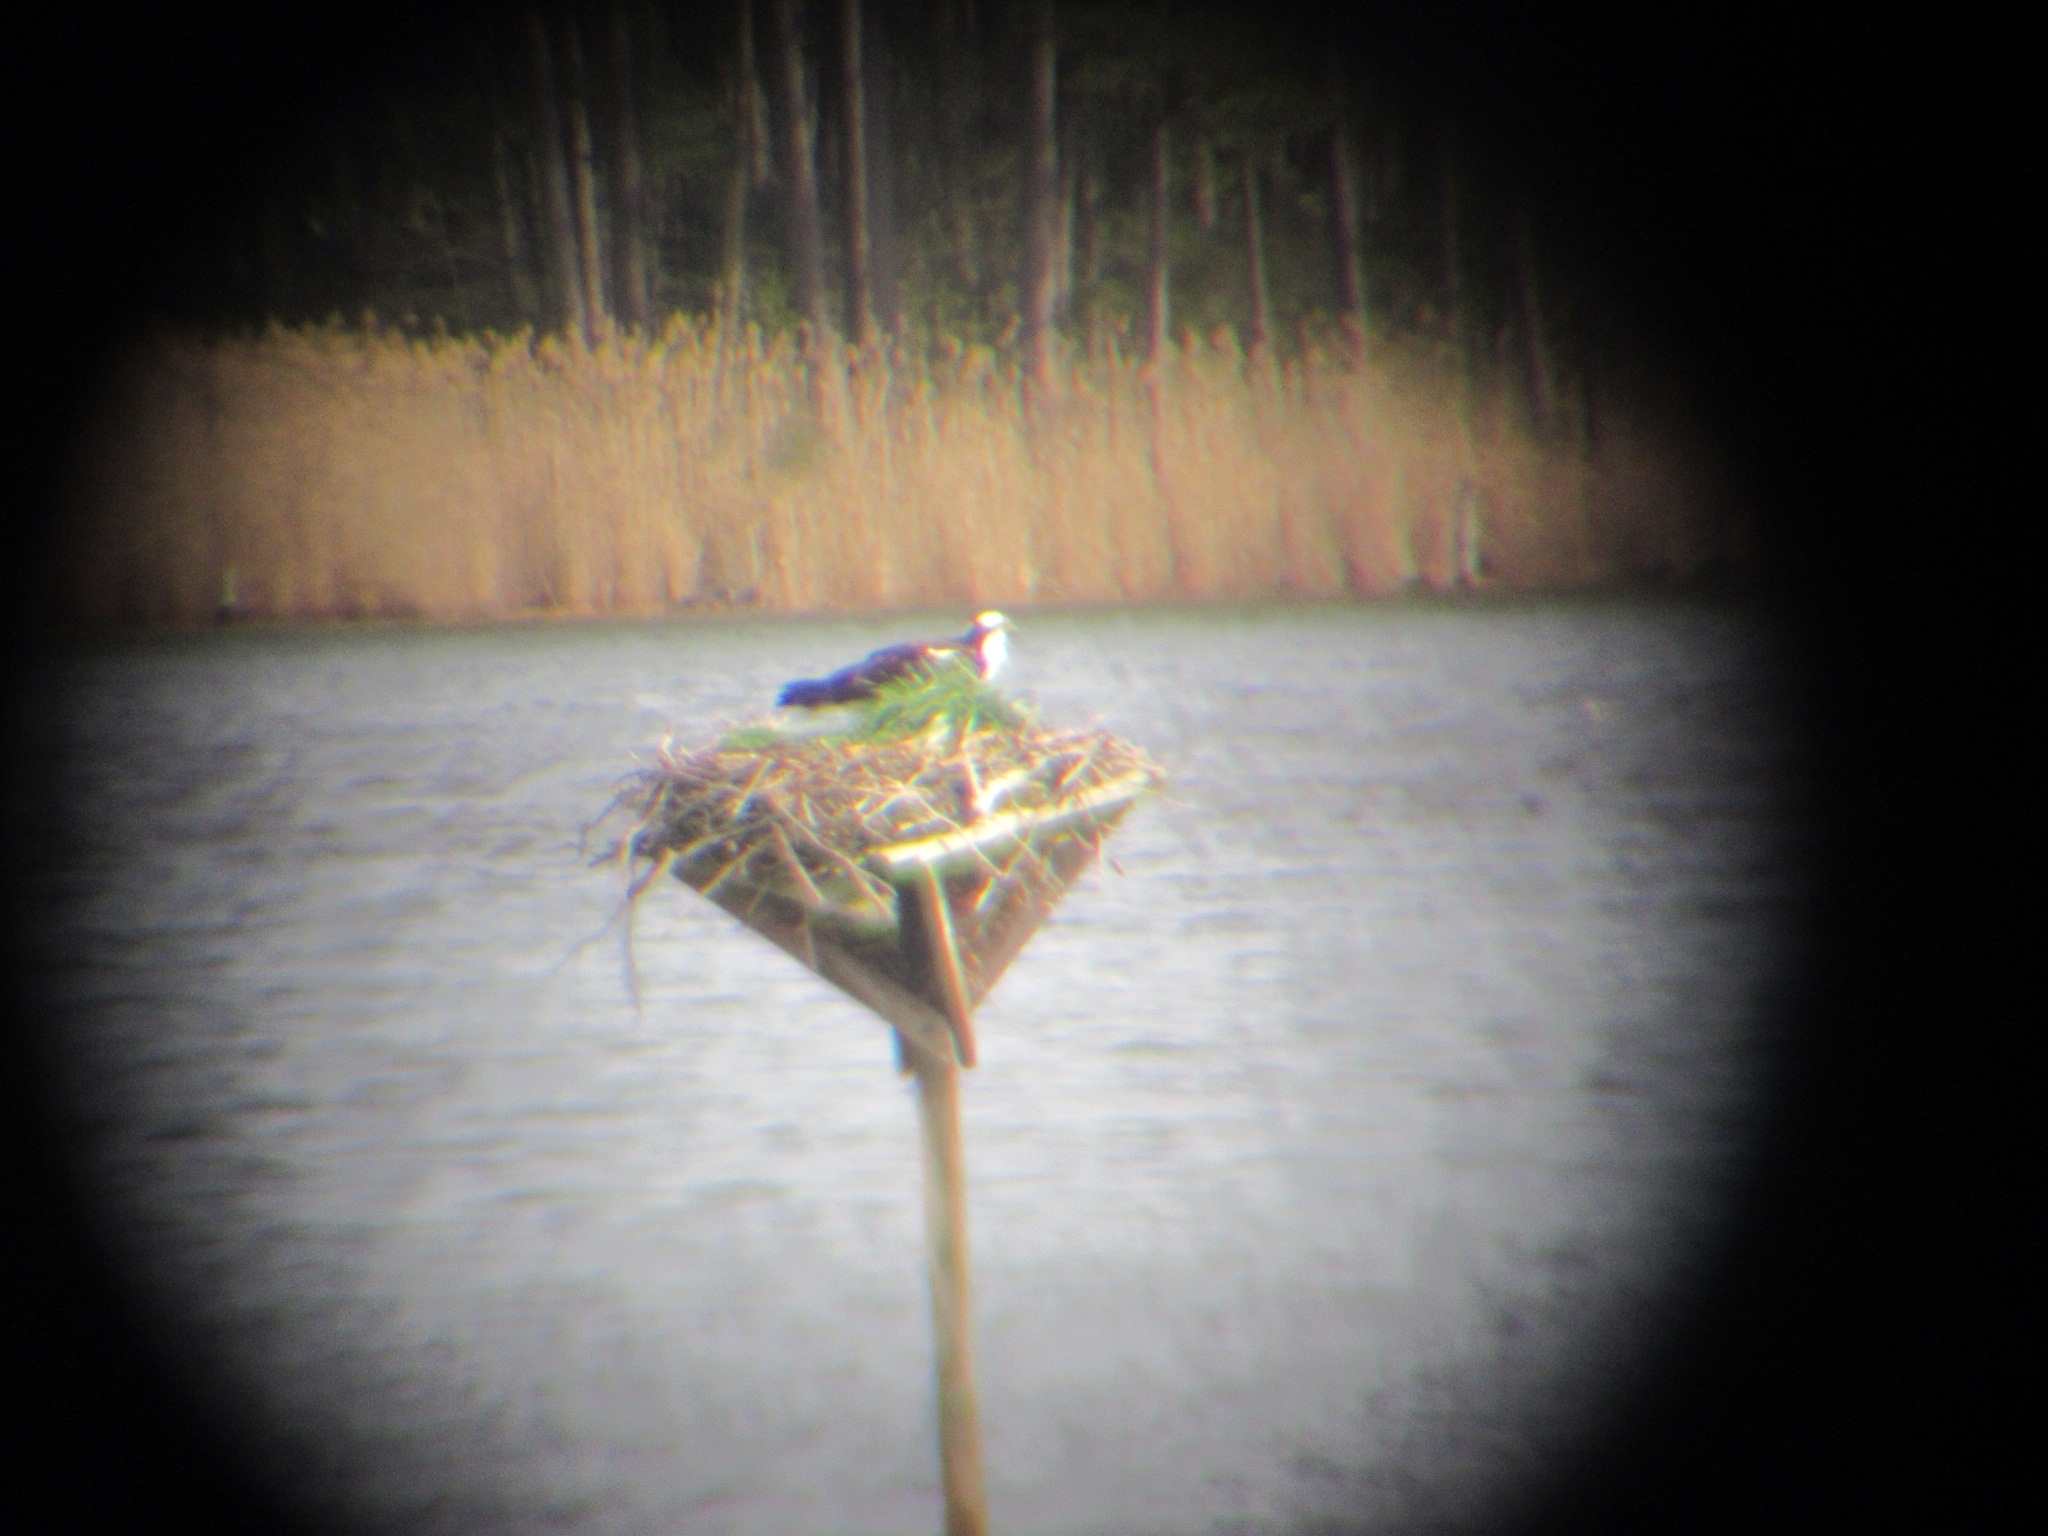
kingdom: Animalia
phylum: Chordata
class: Aves
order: Accipitriformes
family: Pandionidae
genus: Pandion
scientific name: Pandion haliaetus
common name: Osprey
